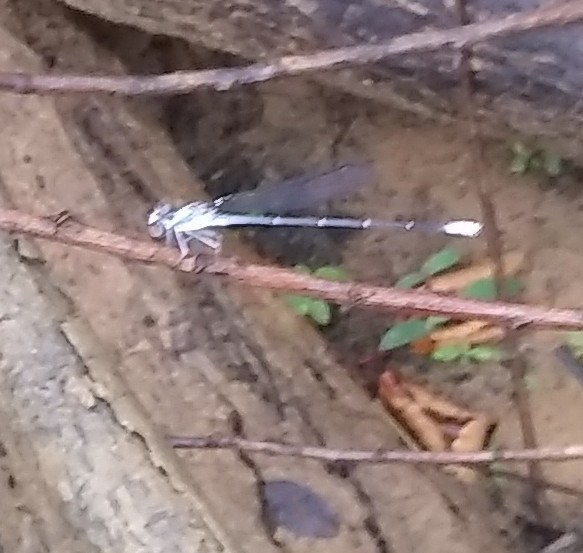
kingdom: Animalia
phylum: Arthropoda
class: Insecta
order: Odonata
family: Coenagrionidae
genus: Argia
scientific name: Argia moesta
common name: Powdered dancer
